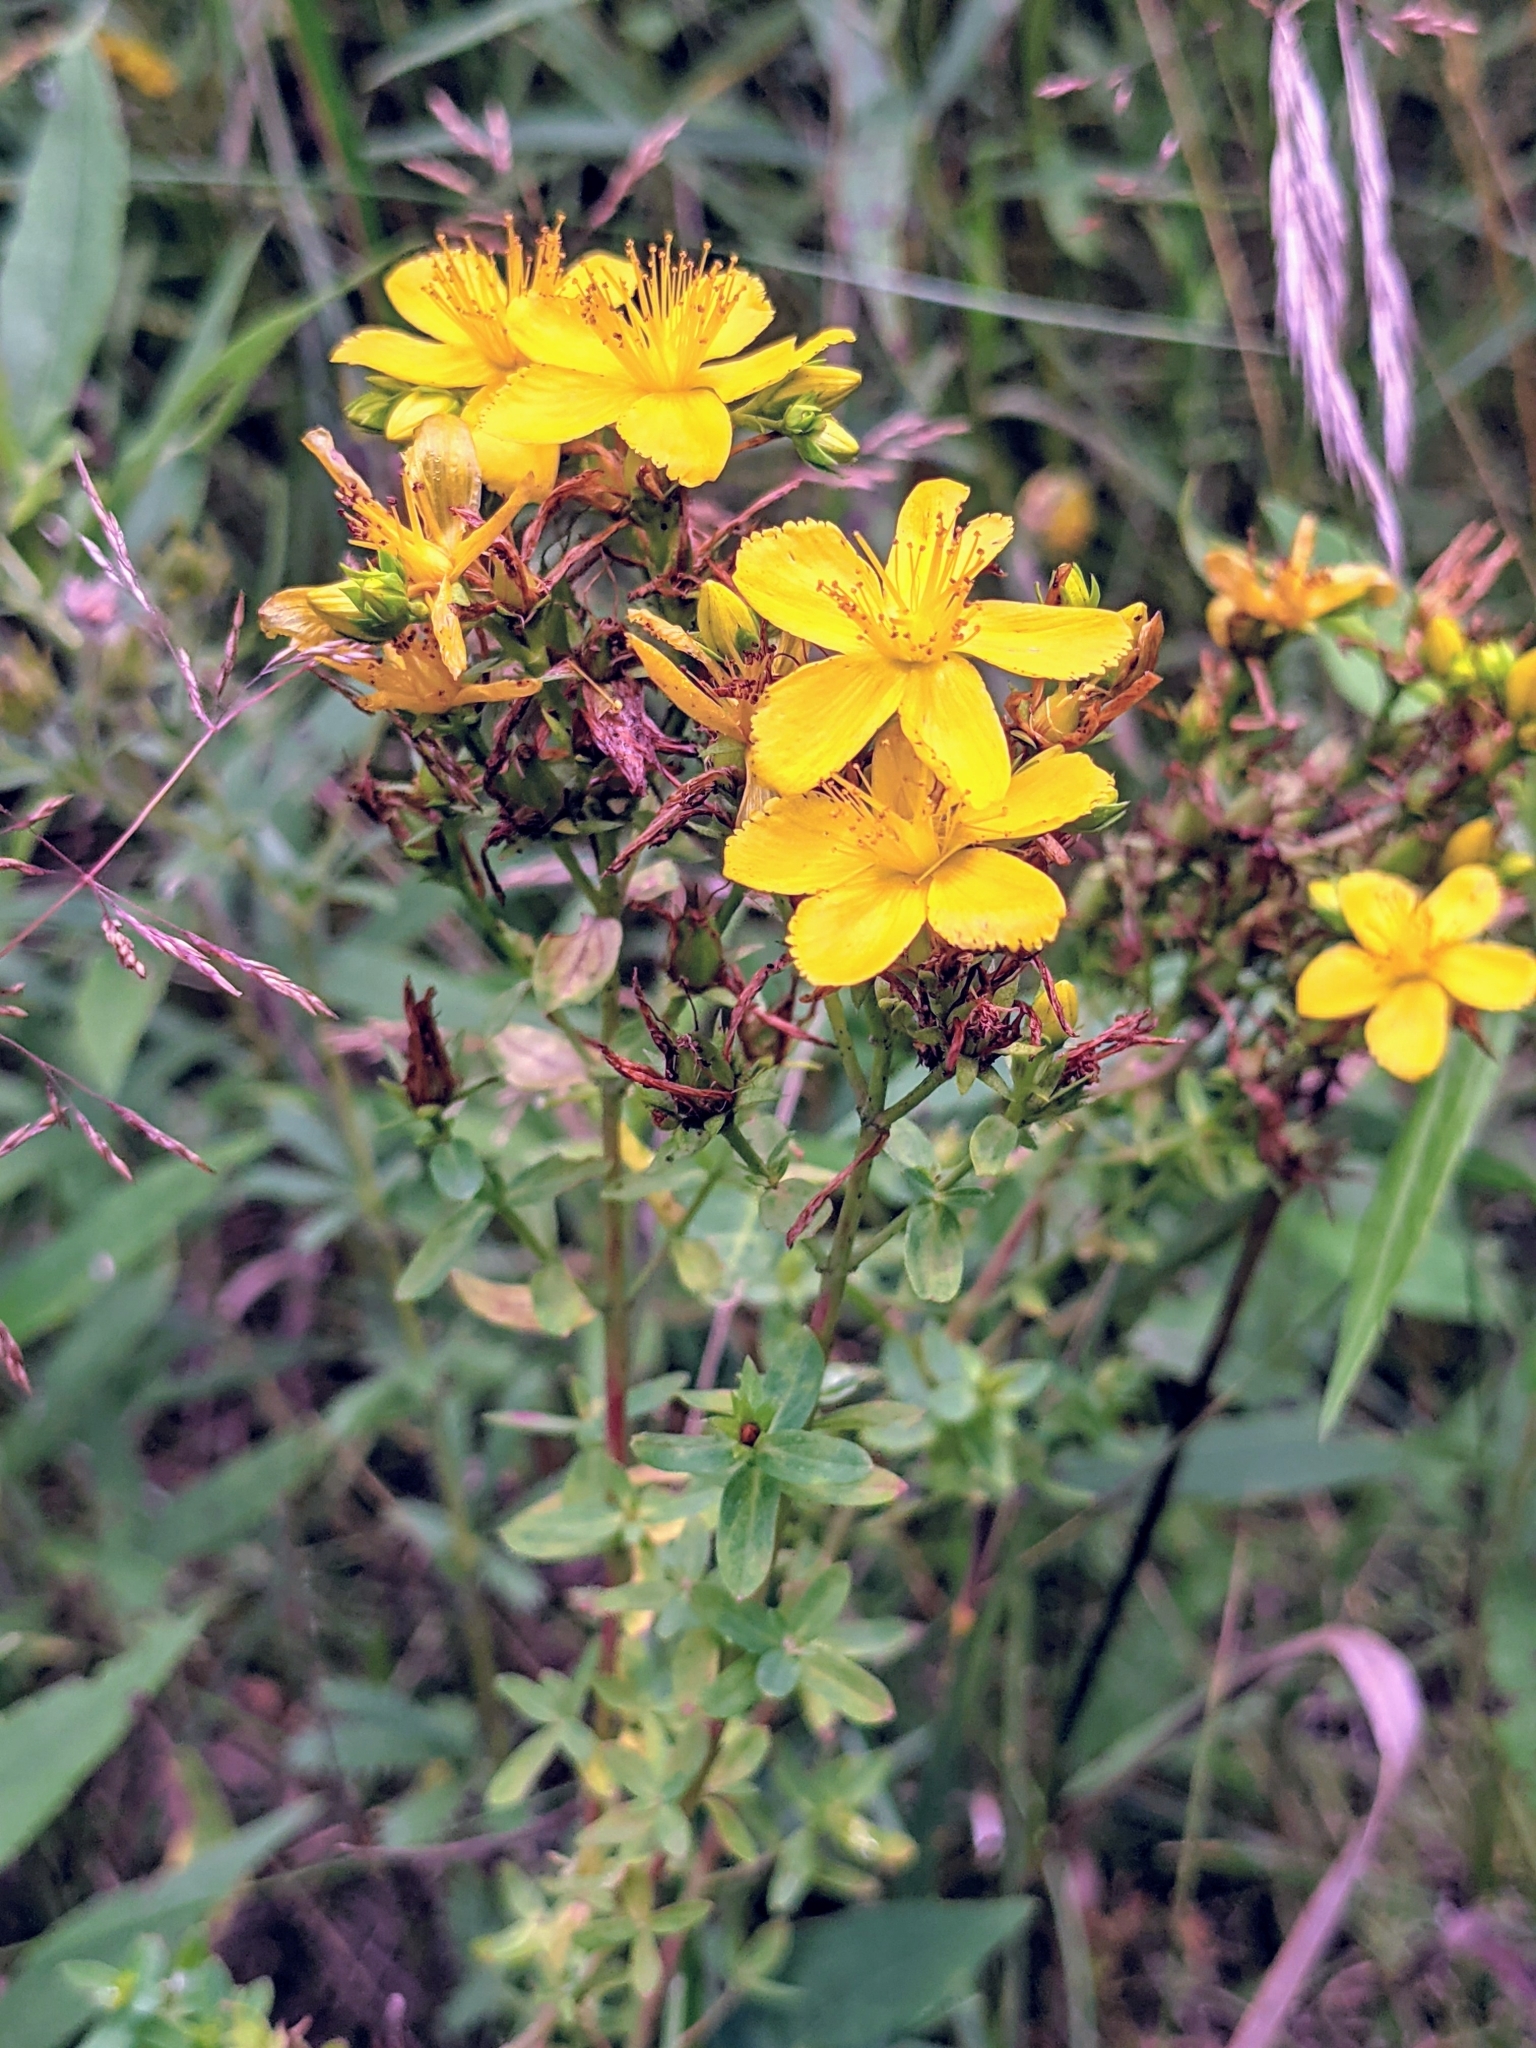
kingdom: Plantae
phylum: Tracheophyta
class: Magnoliopsida
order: Malpighiales
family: Hypericaceae
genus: Hypericum
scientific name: Hypericum perforatum
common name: Common st. johnswort
